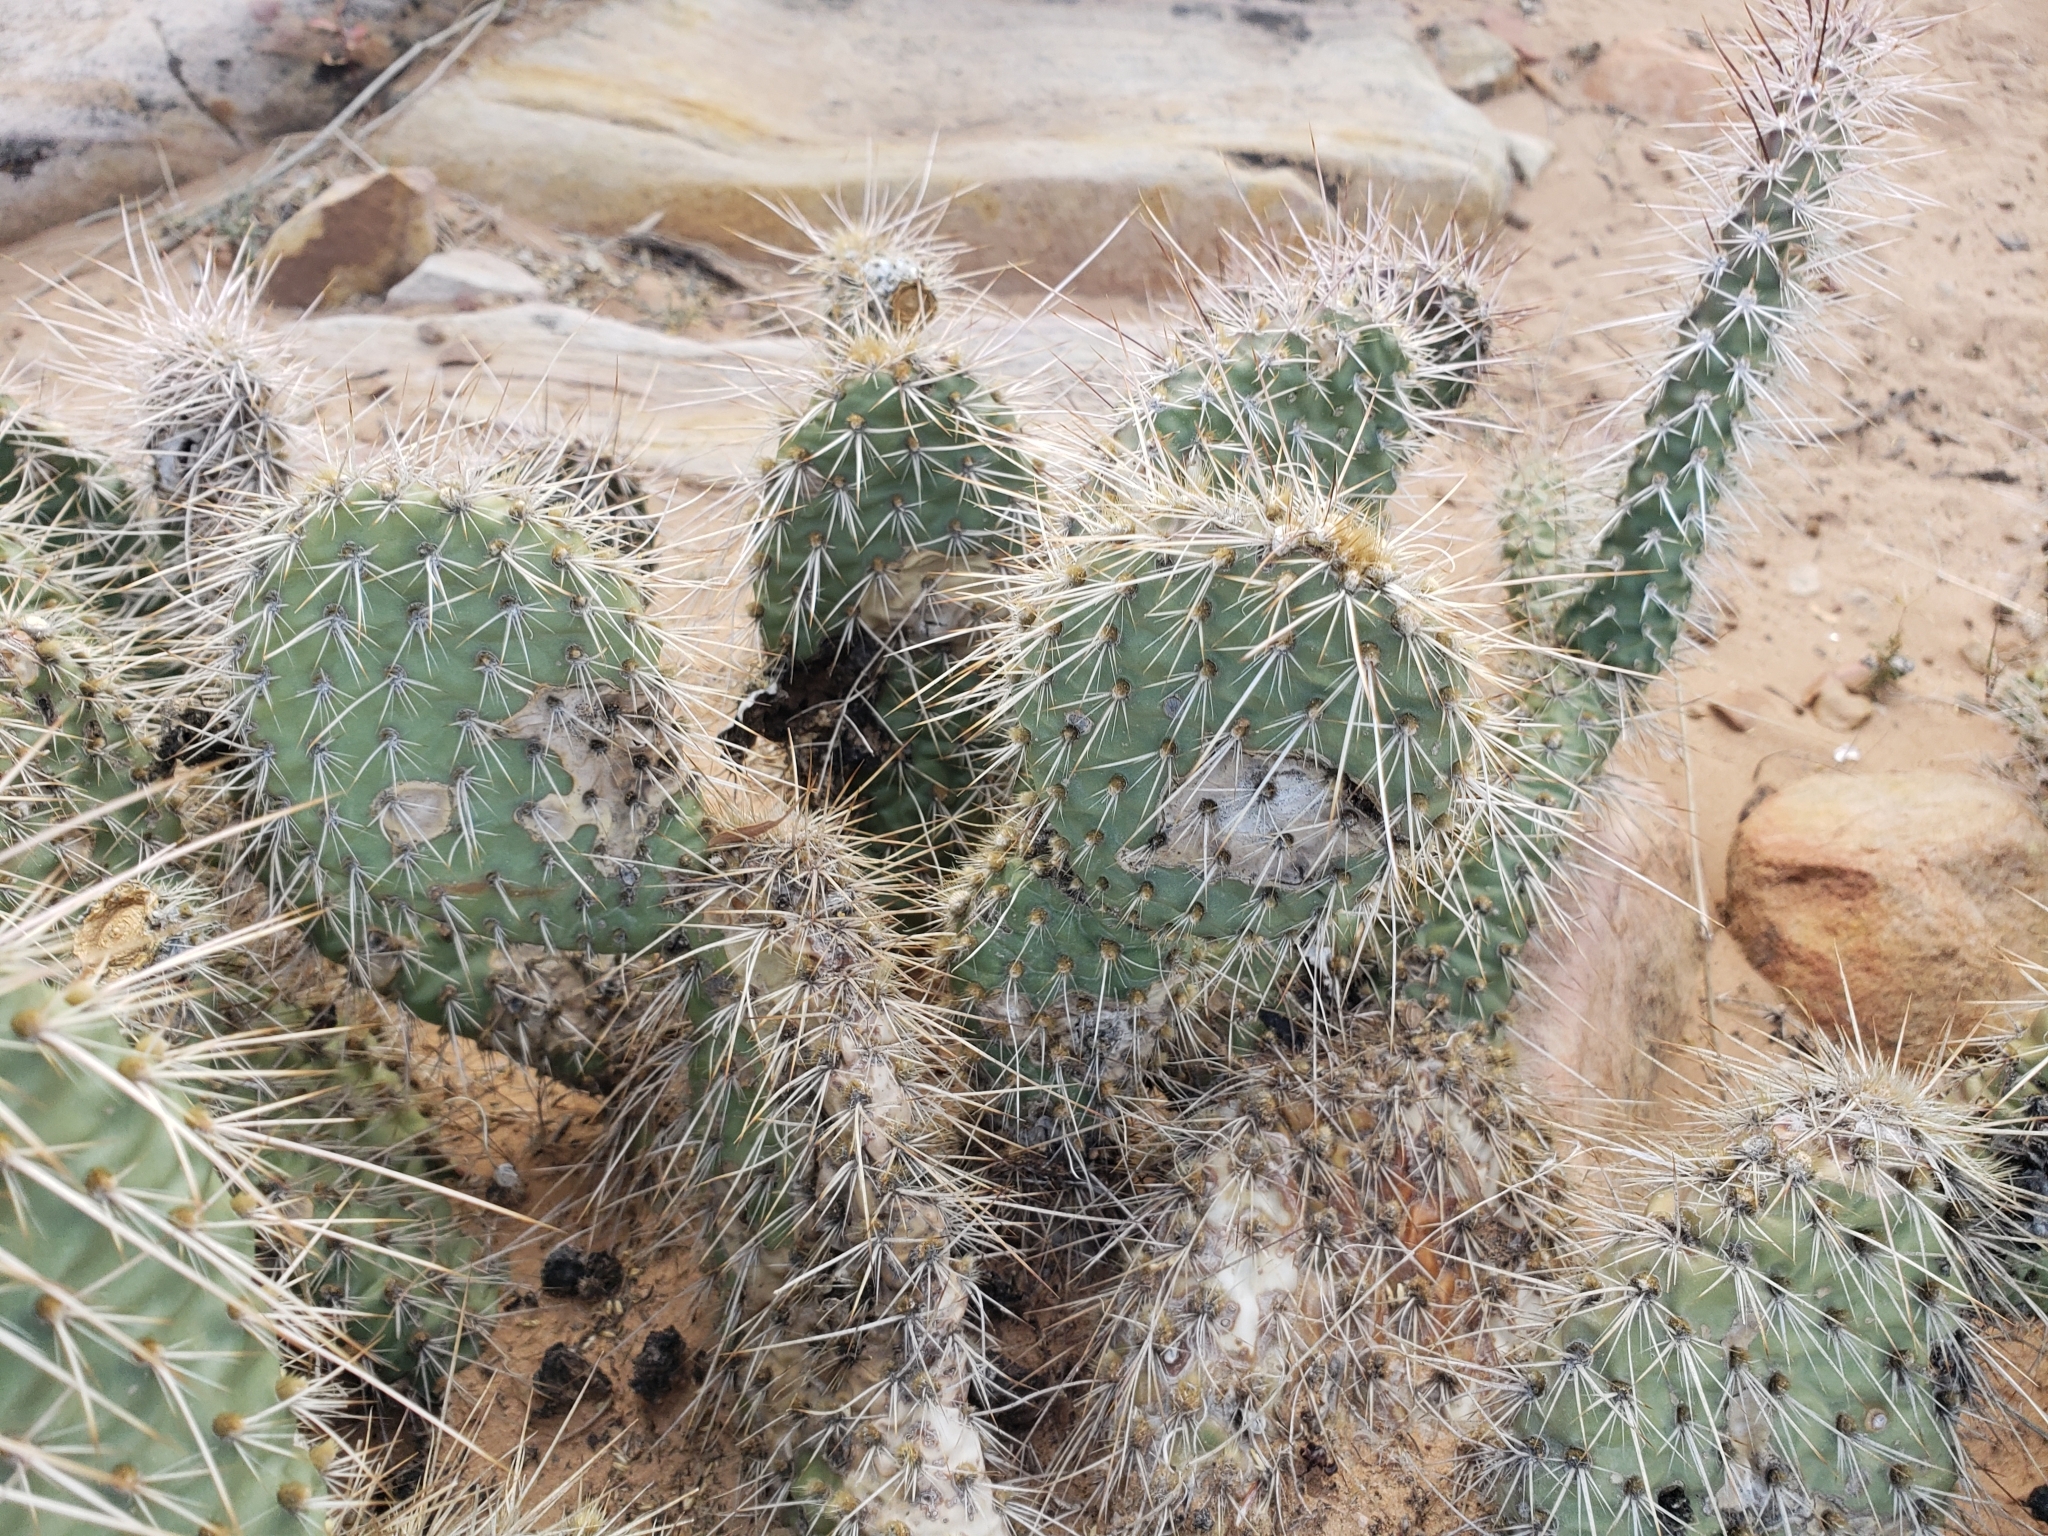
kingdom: Plantae
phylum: Tracheophyta
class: Magnoliopsida
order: Caryophyllales
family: Cactaceae
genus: Opuntia
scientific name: Opuntia polyacantha
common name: Plains prickly-pear
